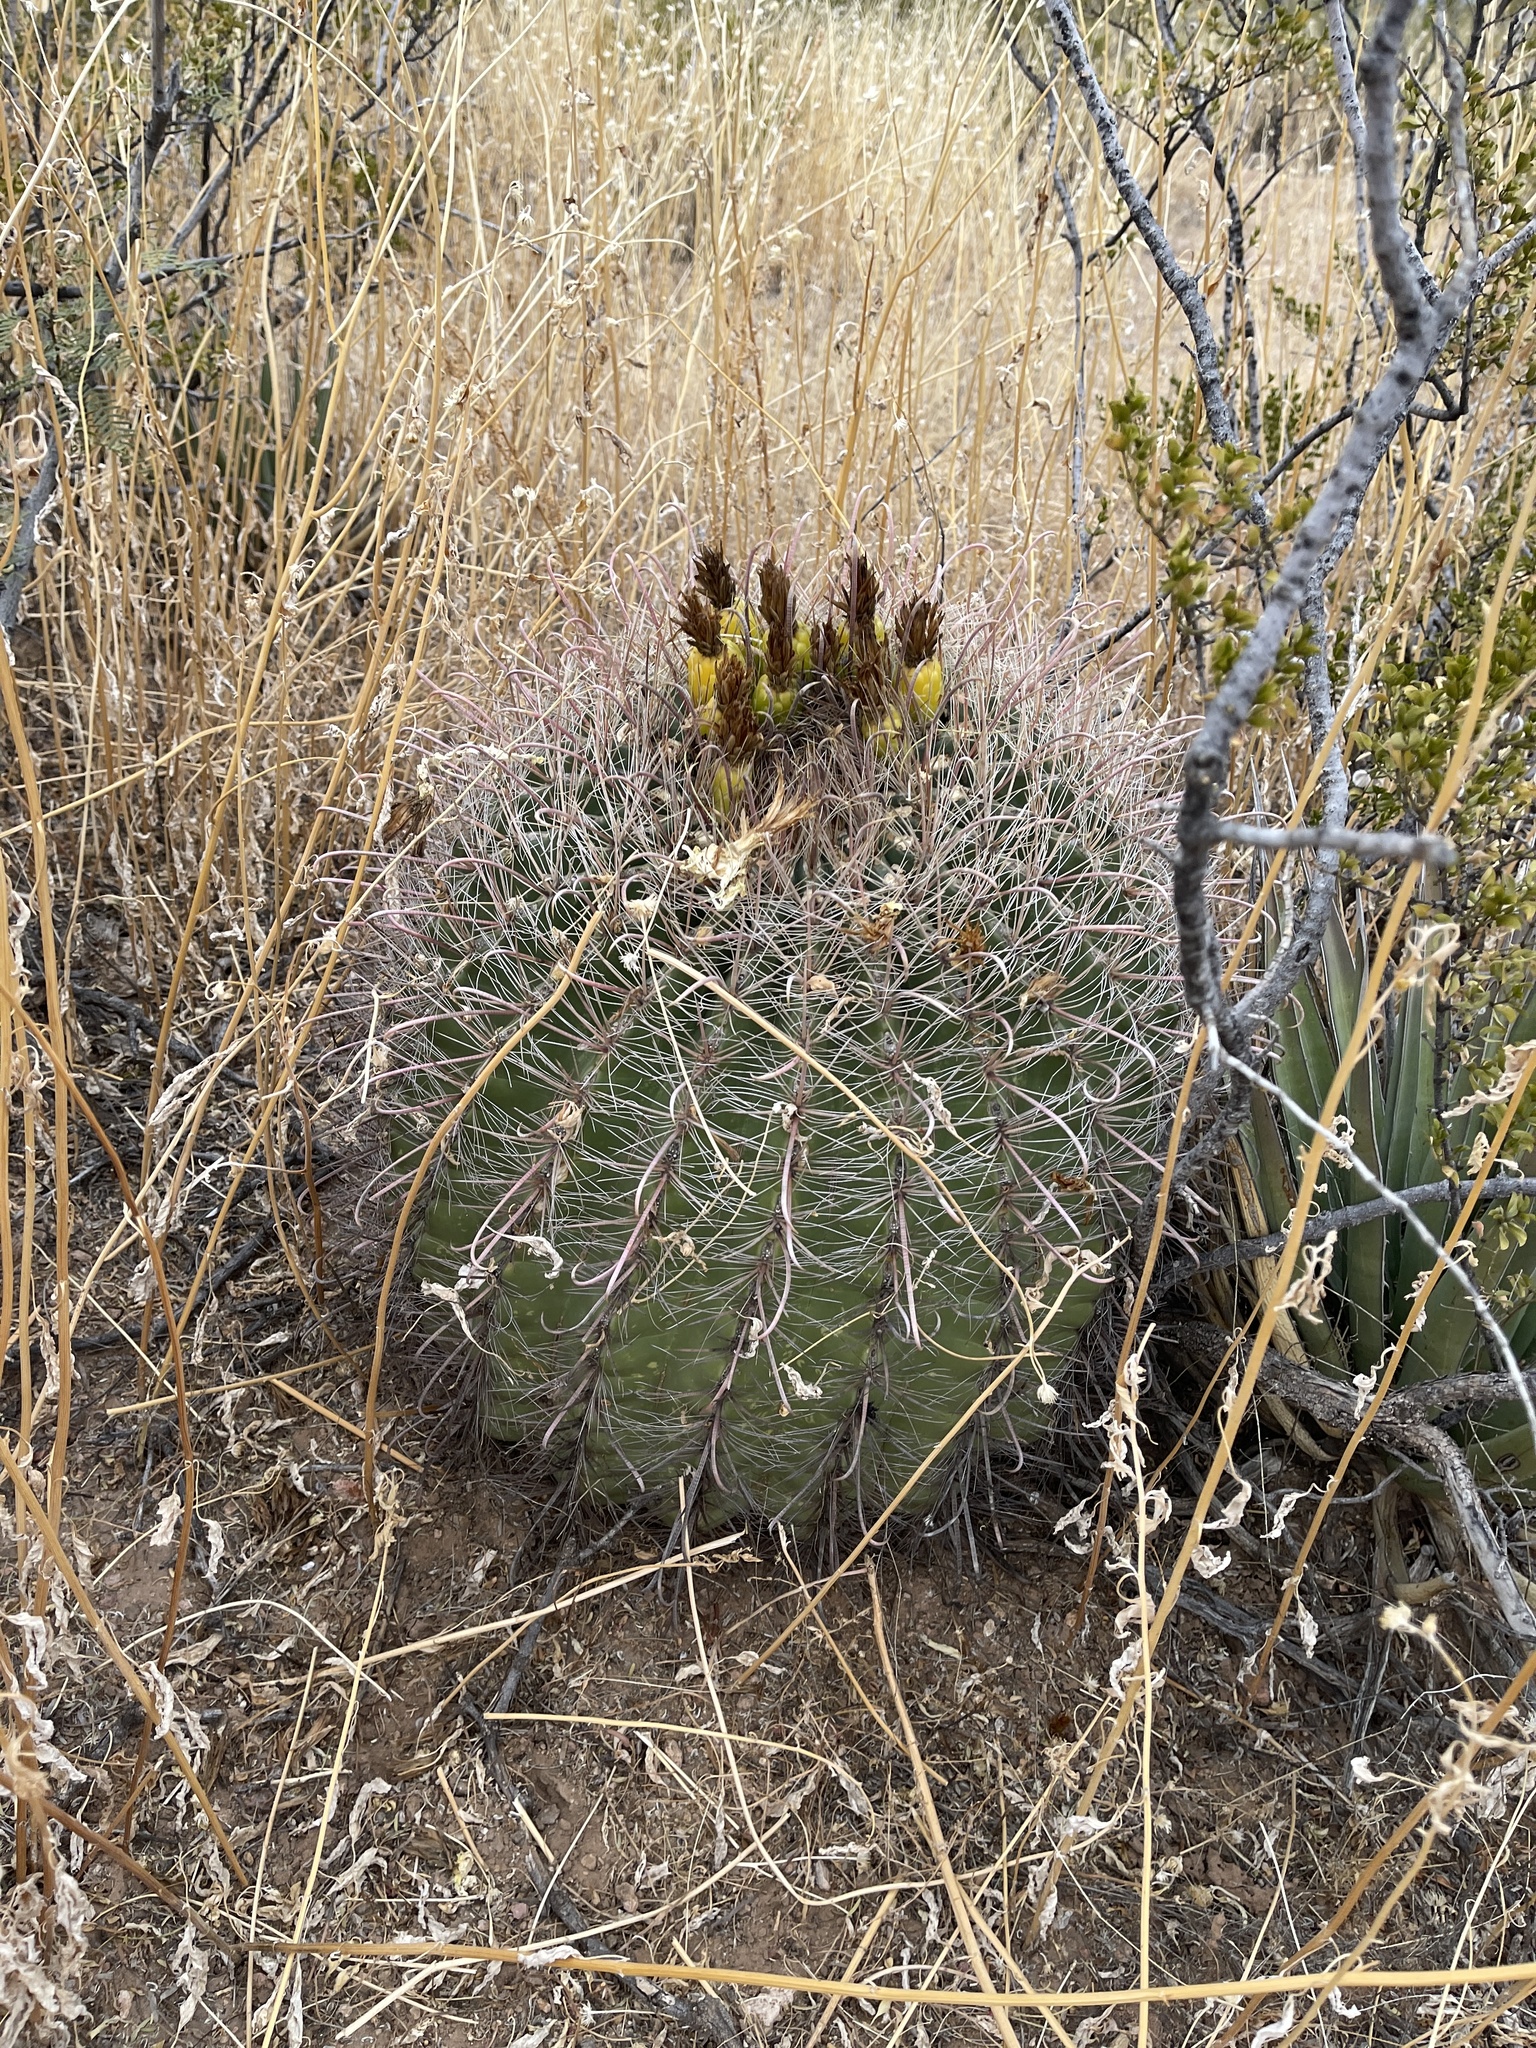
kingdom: Plantae
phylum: Tracheophyta
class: Magnoliopsida
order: Caryophyllales
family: Cactaceae
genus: Ferocactus
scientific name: Ferocactus wislizeni
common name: Candy barrel cactus
